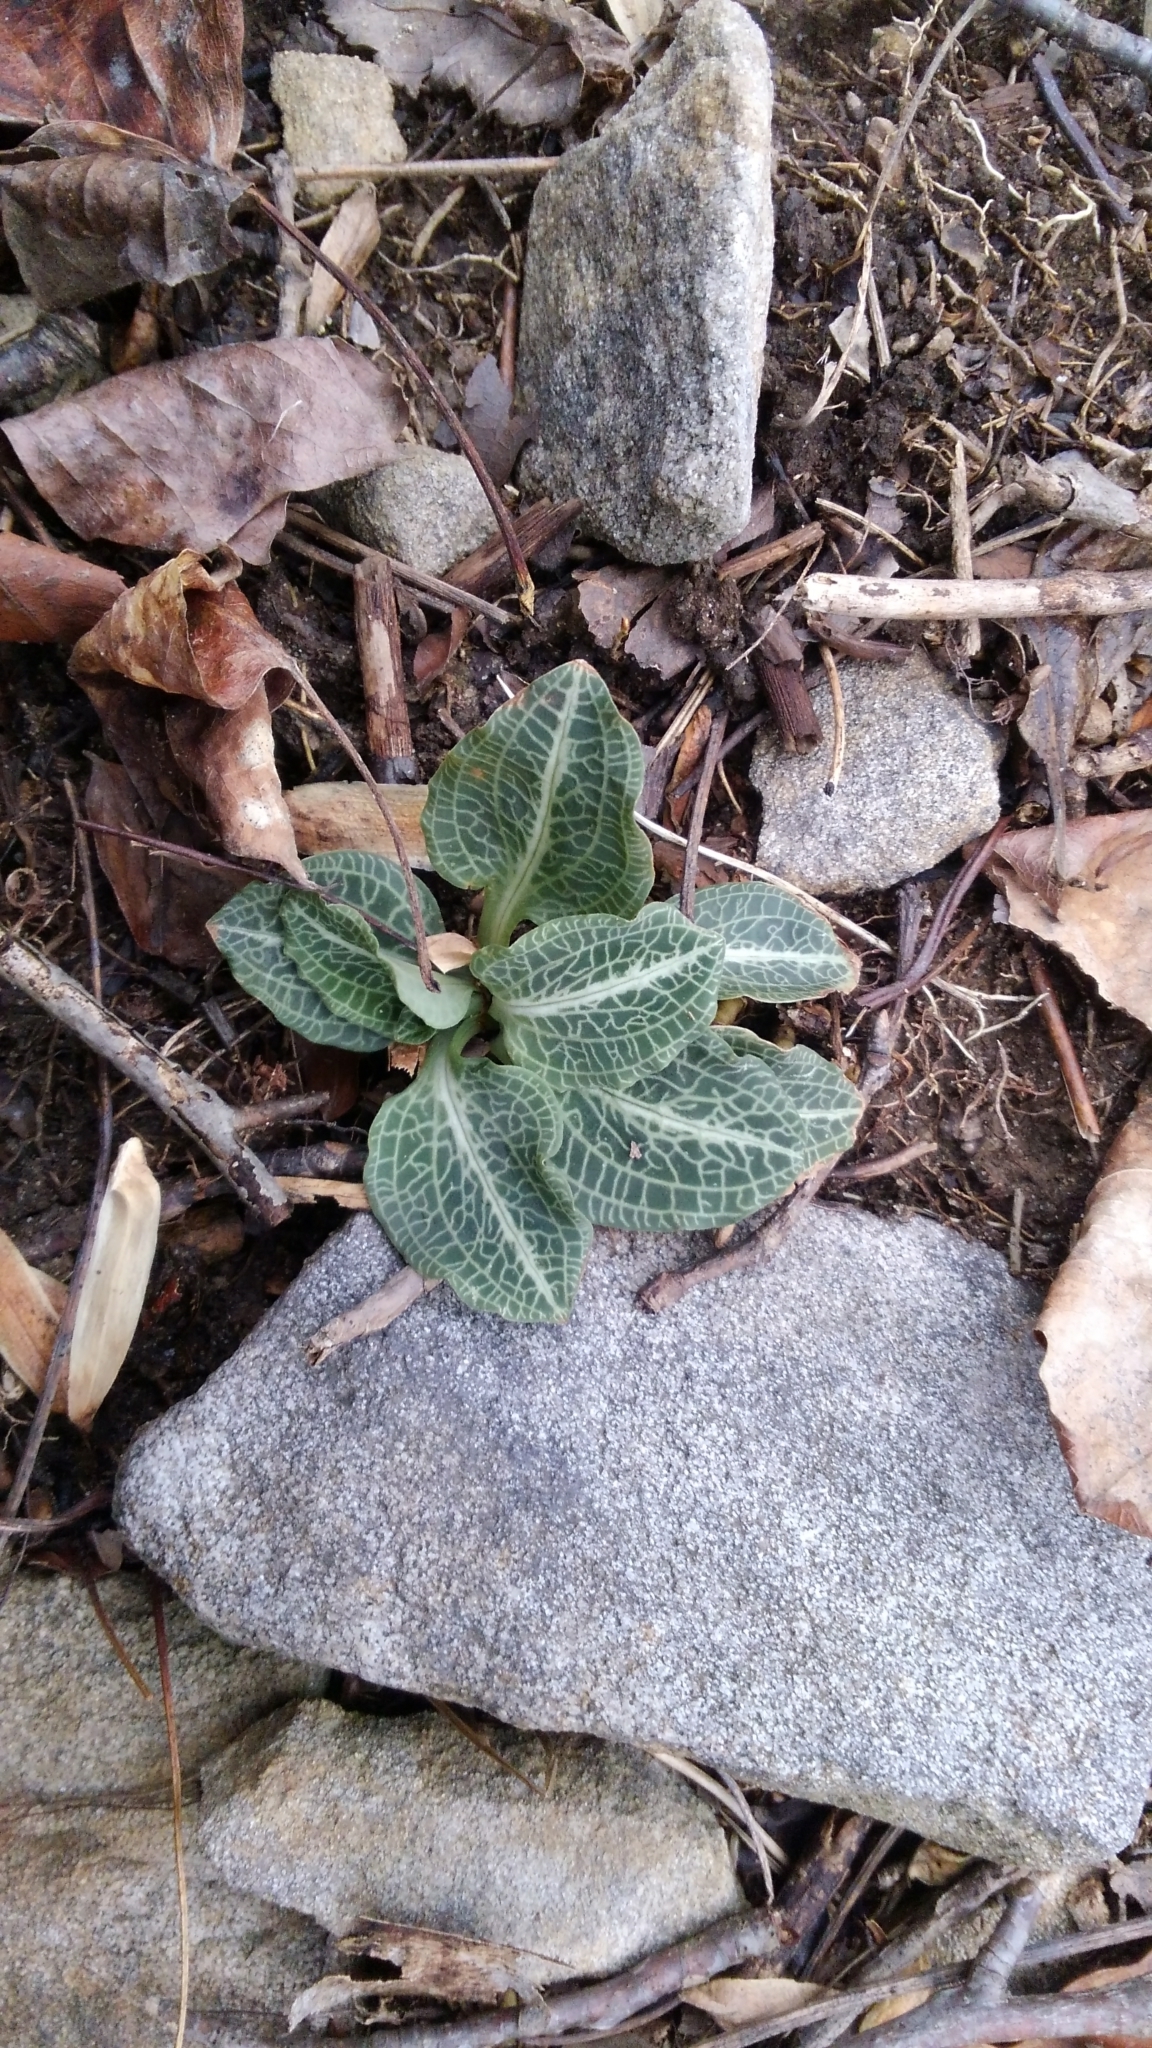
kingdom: Plantae
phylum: Tracheophyta
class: Liliopsida
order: Asparagales
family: Orchidaceae
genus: Goodyera
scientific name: Goodyera pubescens
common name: Downy rattlesnake-plantain
